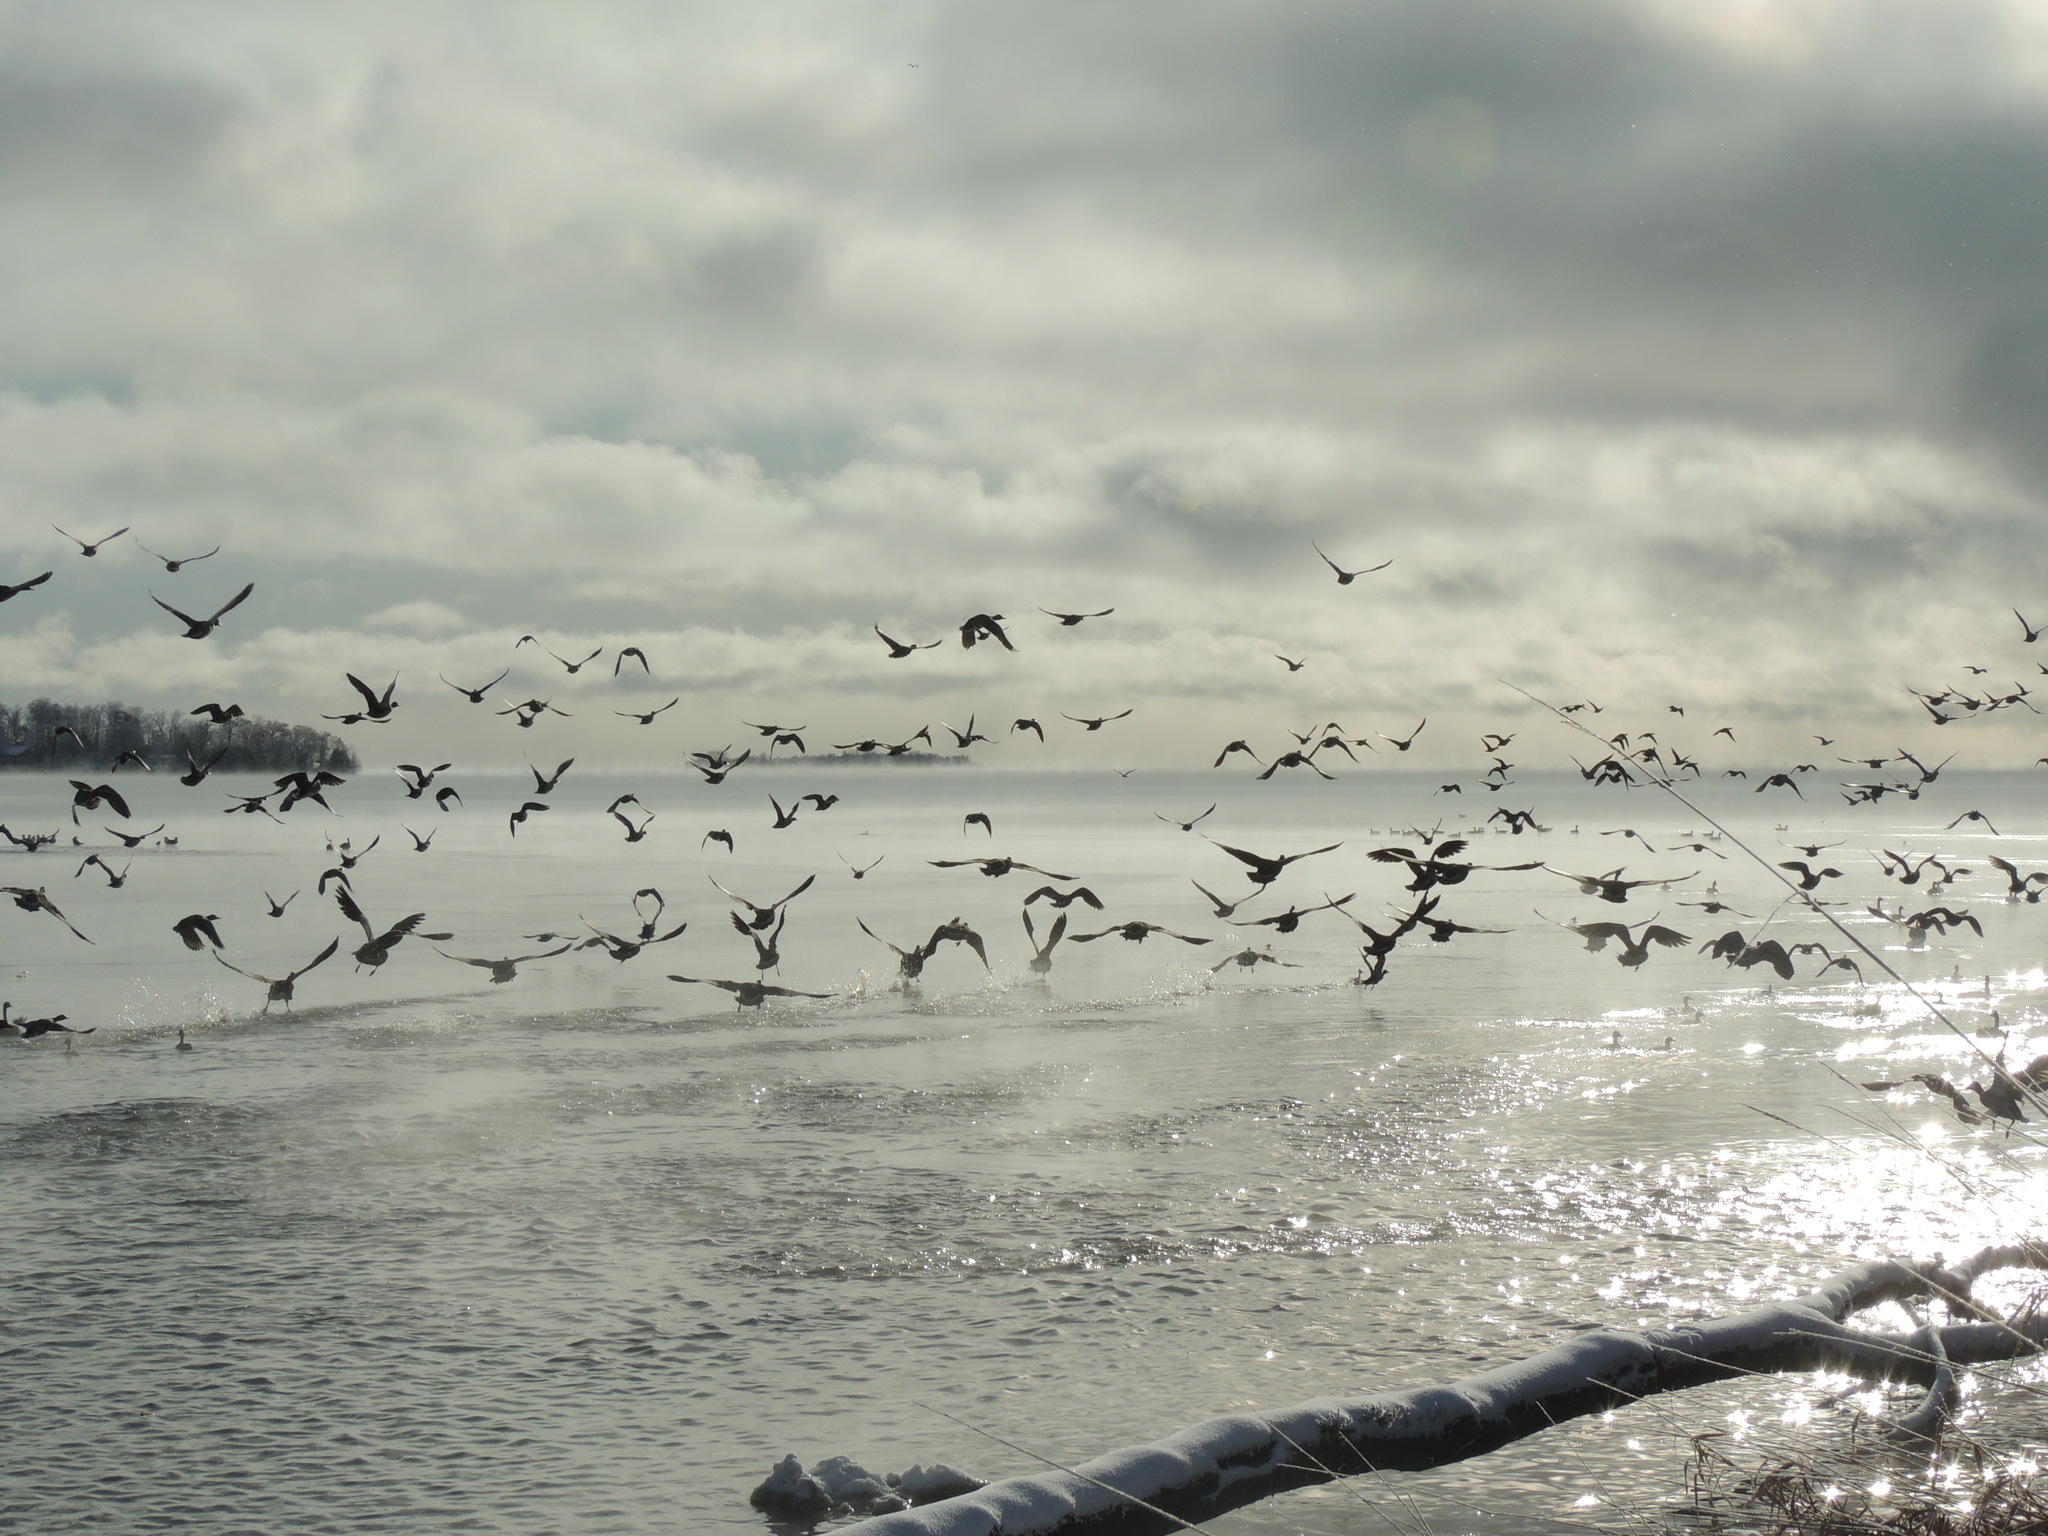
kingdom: Animalia
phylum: Chordata
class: Aves
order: Anseriformes
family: Anatidae
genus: Anas
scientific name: Anas platyrhynchos
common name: Mallard
